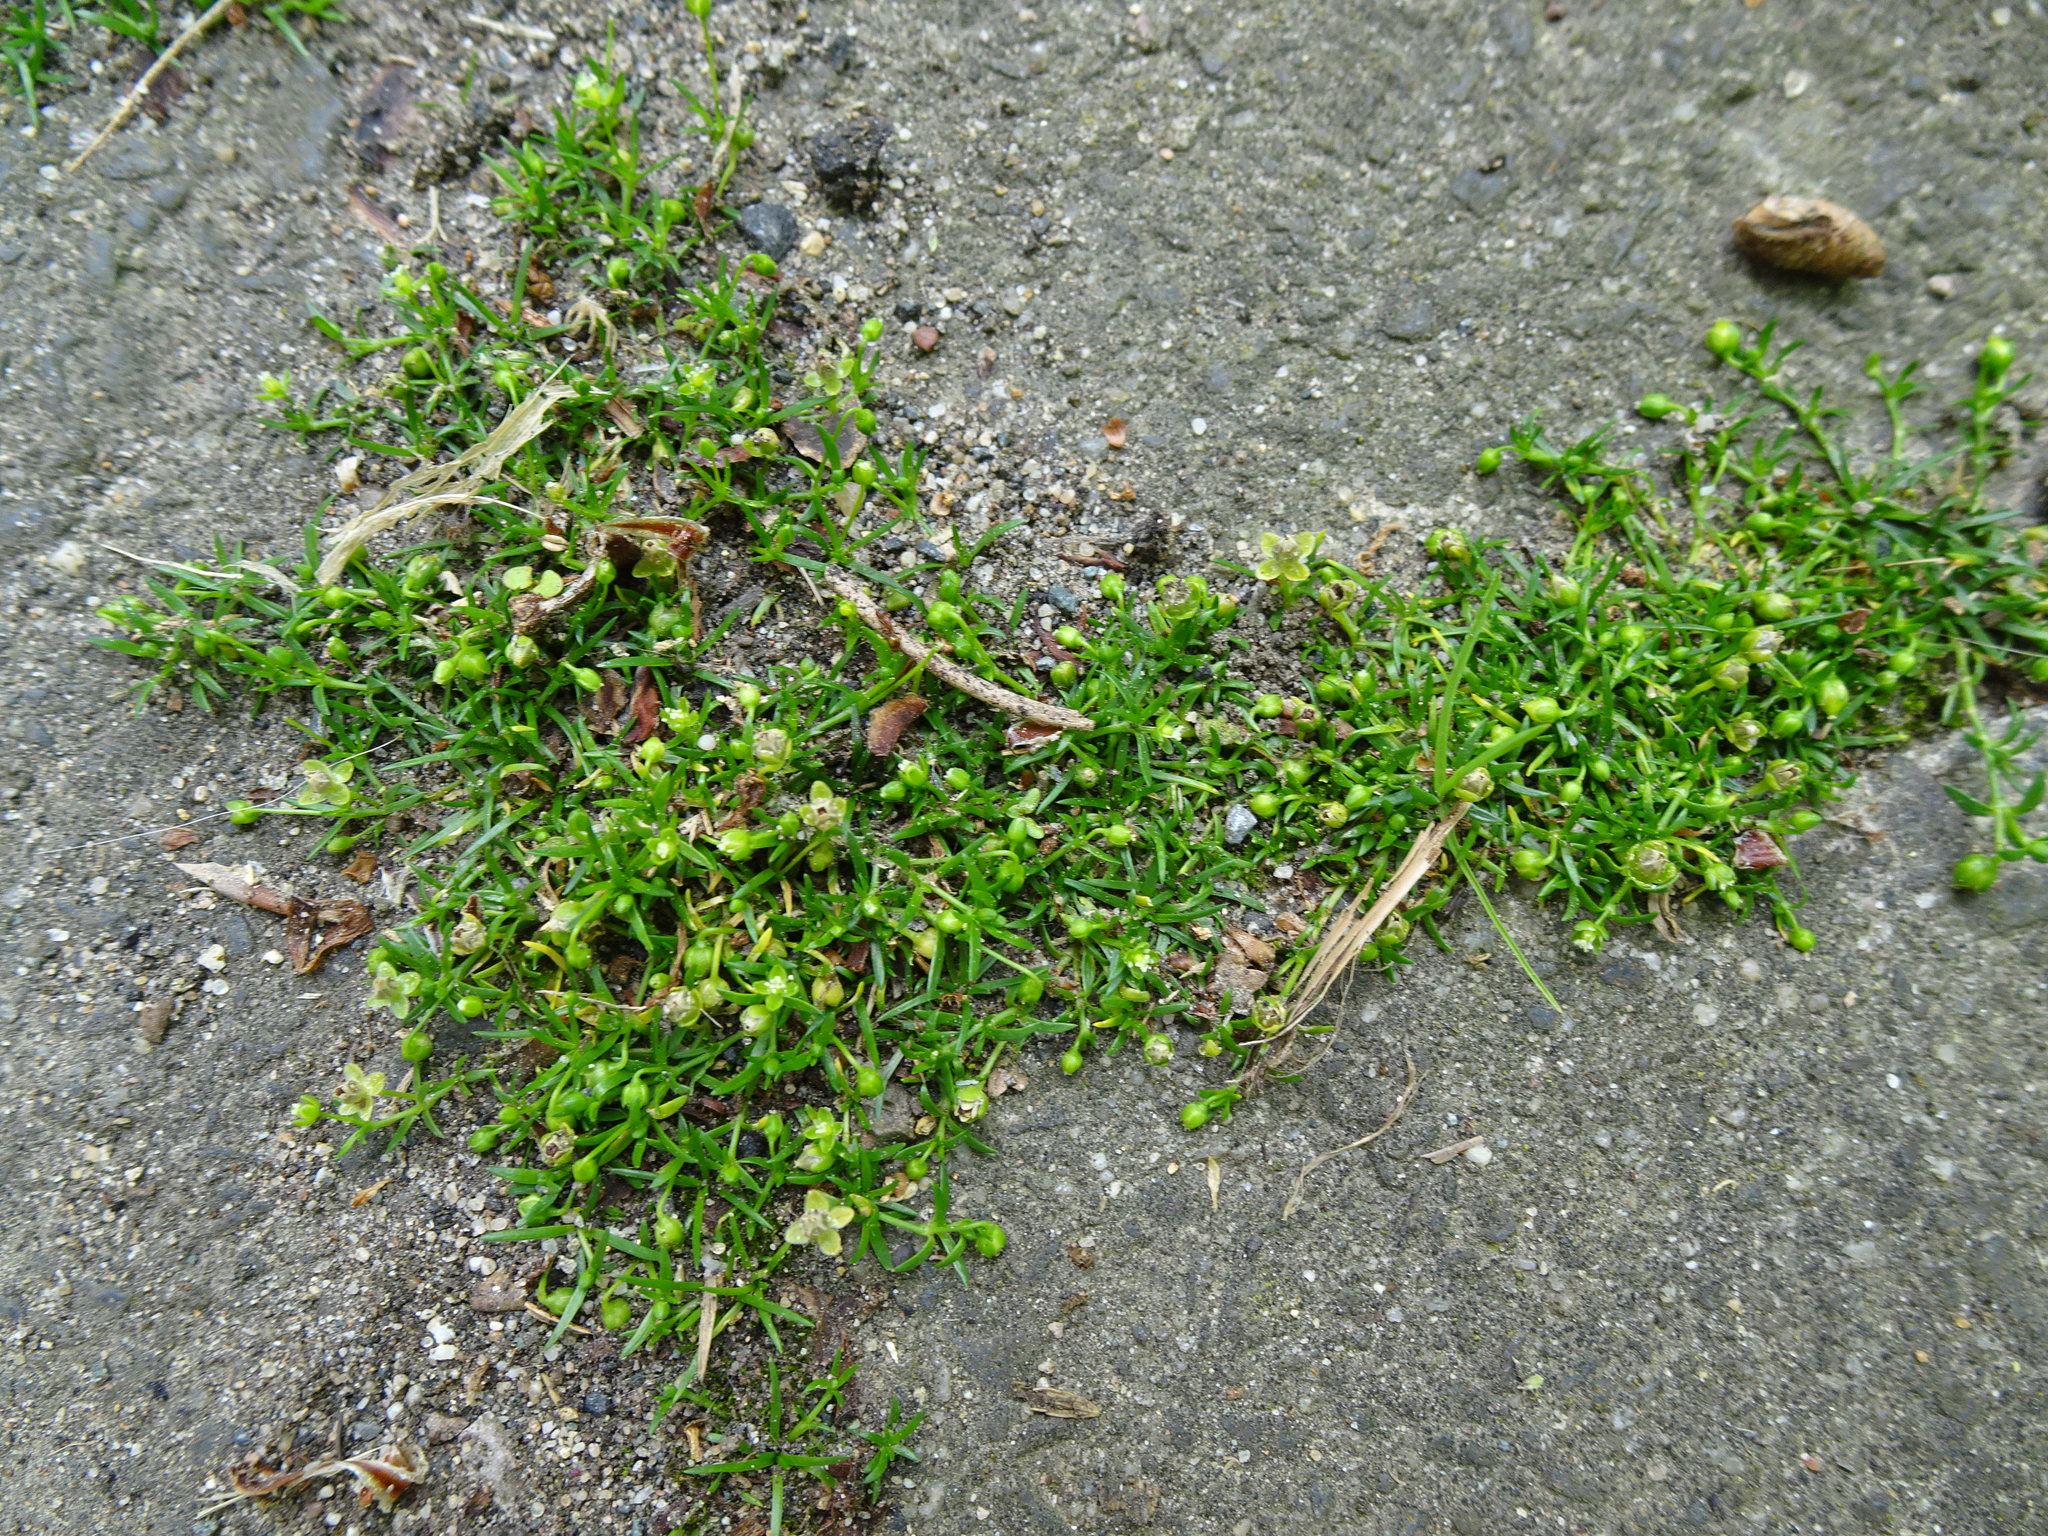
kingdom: Plantae
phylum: Tracheophyta
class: Magnoliopsida
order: Caryophyllales
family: Caryophyllaceae
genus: Sagina
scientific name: Sagina procumbens
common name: Procumbent pearlwort
